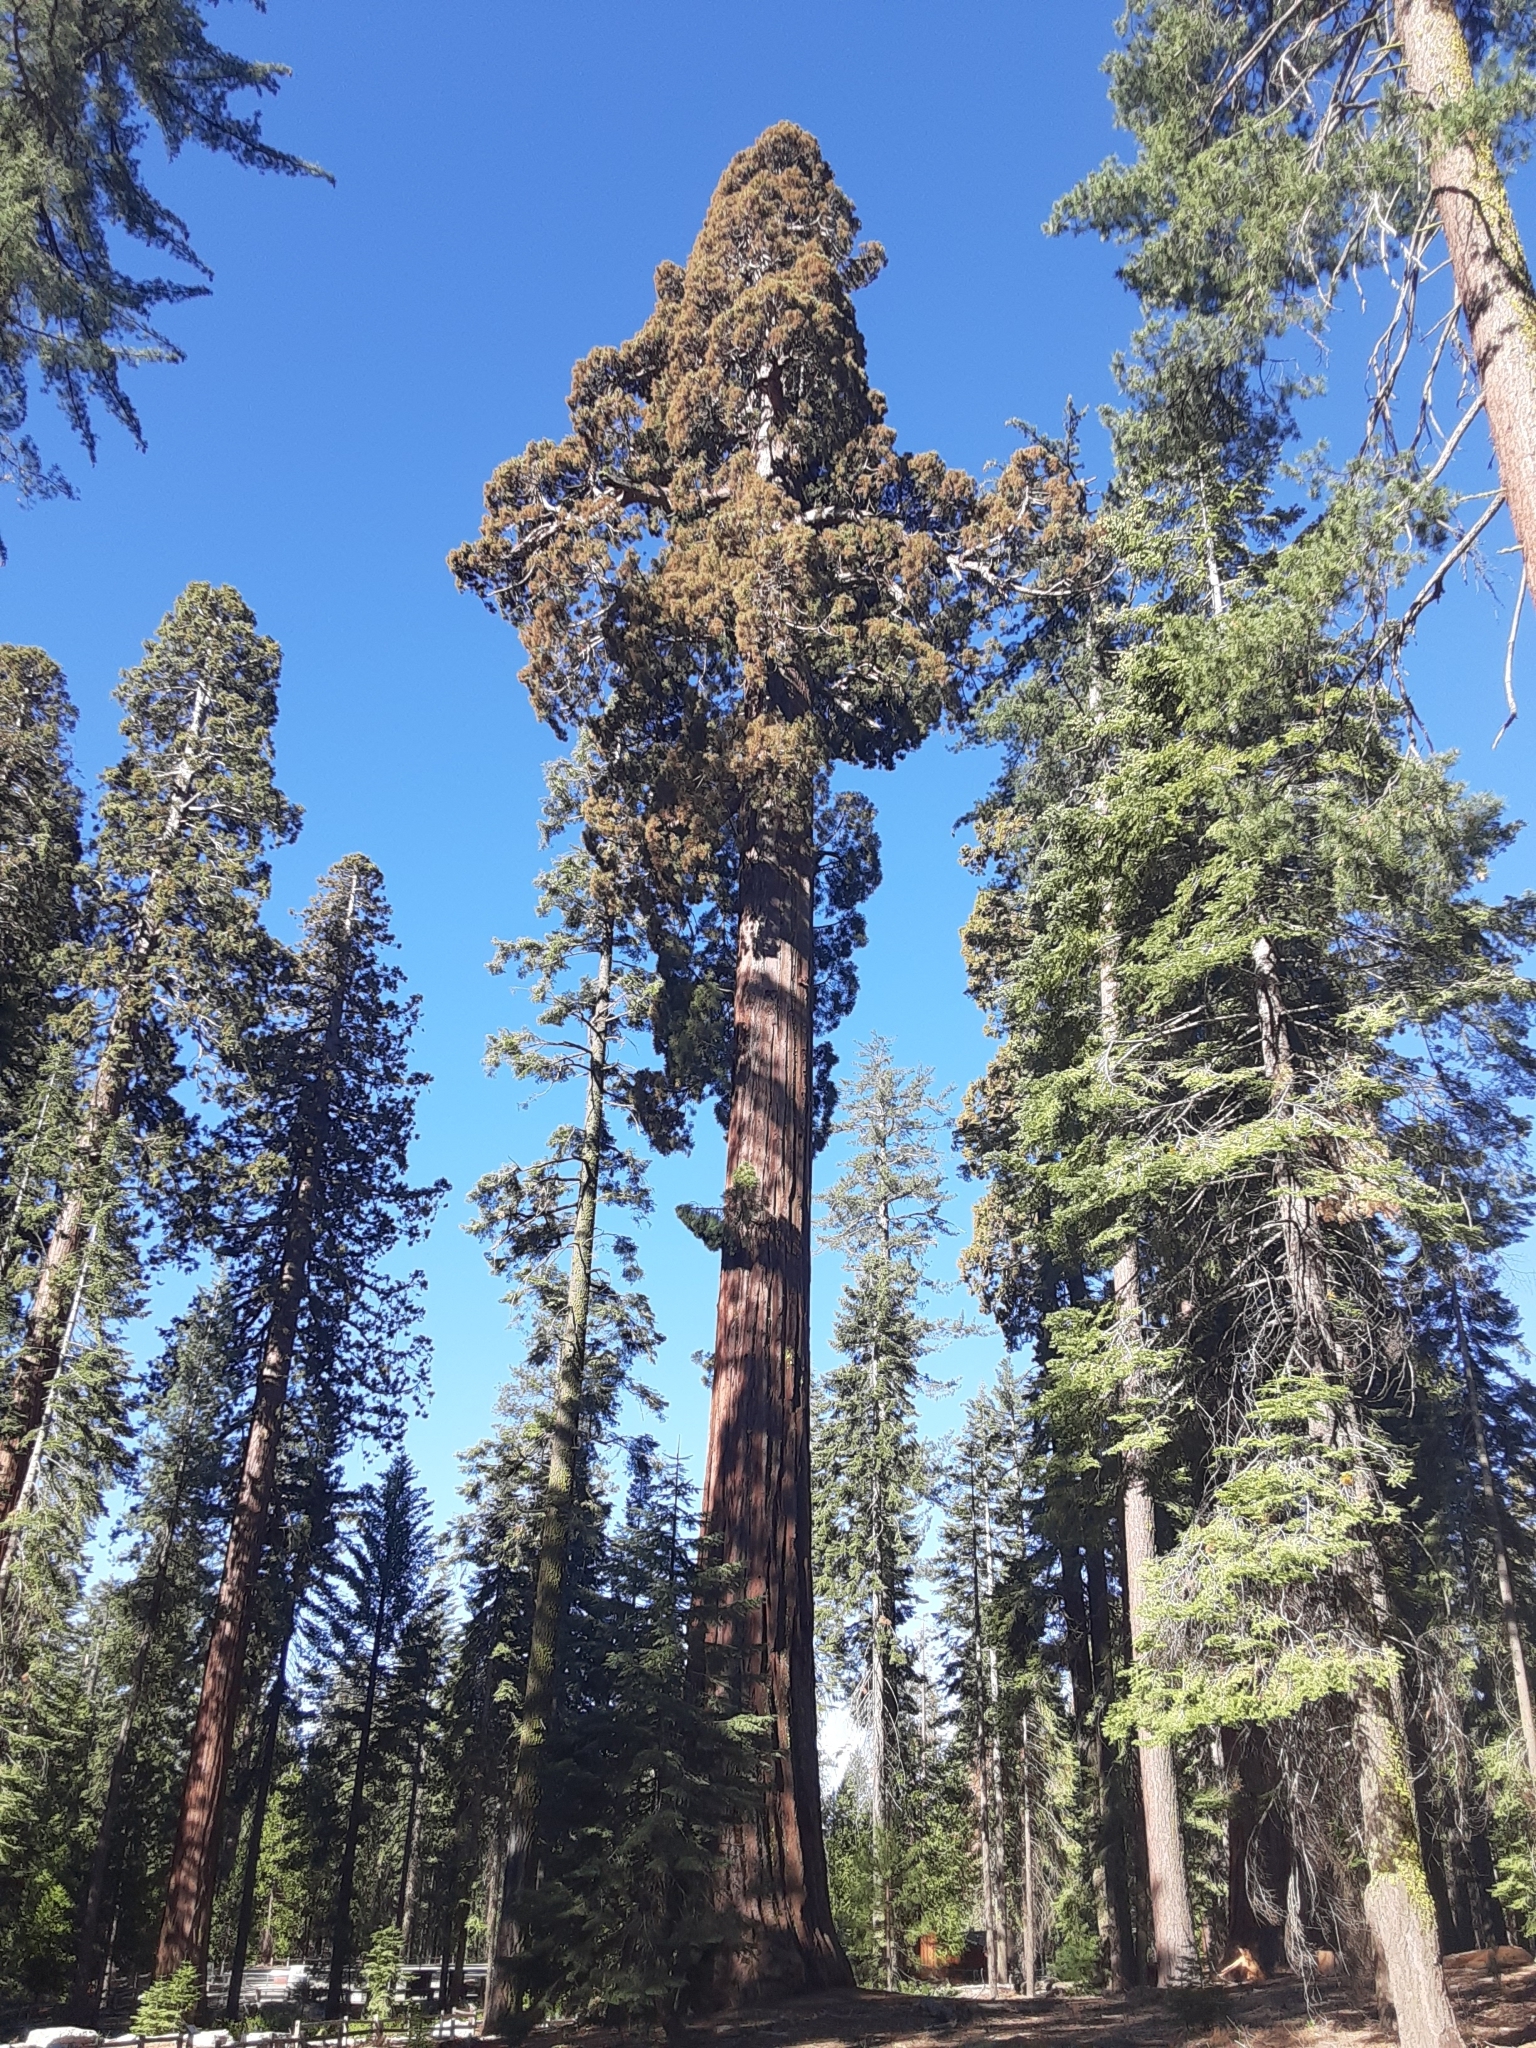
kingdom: Plantae
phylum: Tracheophyta
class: Pinopsida
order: Pinales
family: Cupressaceae
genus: Sequoiadendron
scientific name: Sequoiadendron giganteum
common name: Wellingtonia
